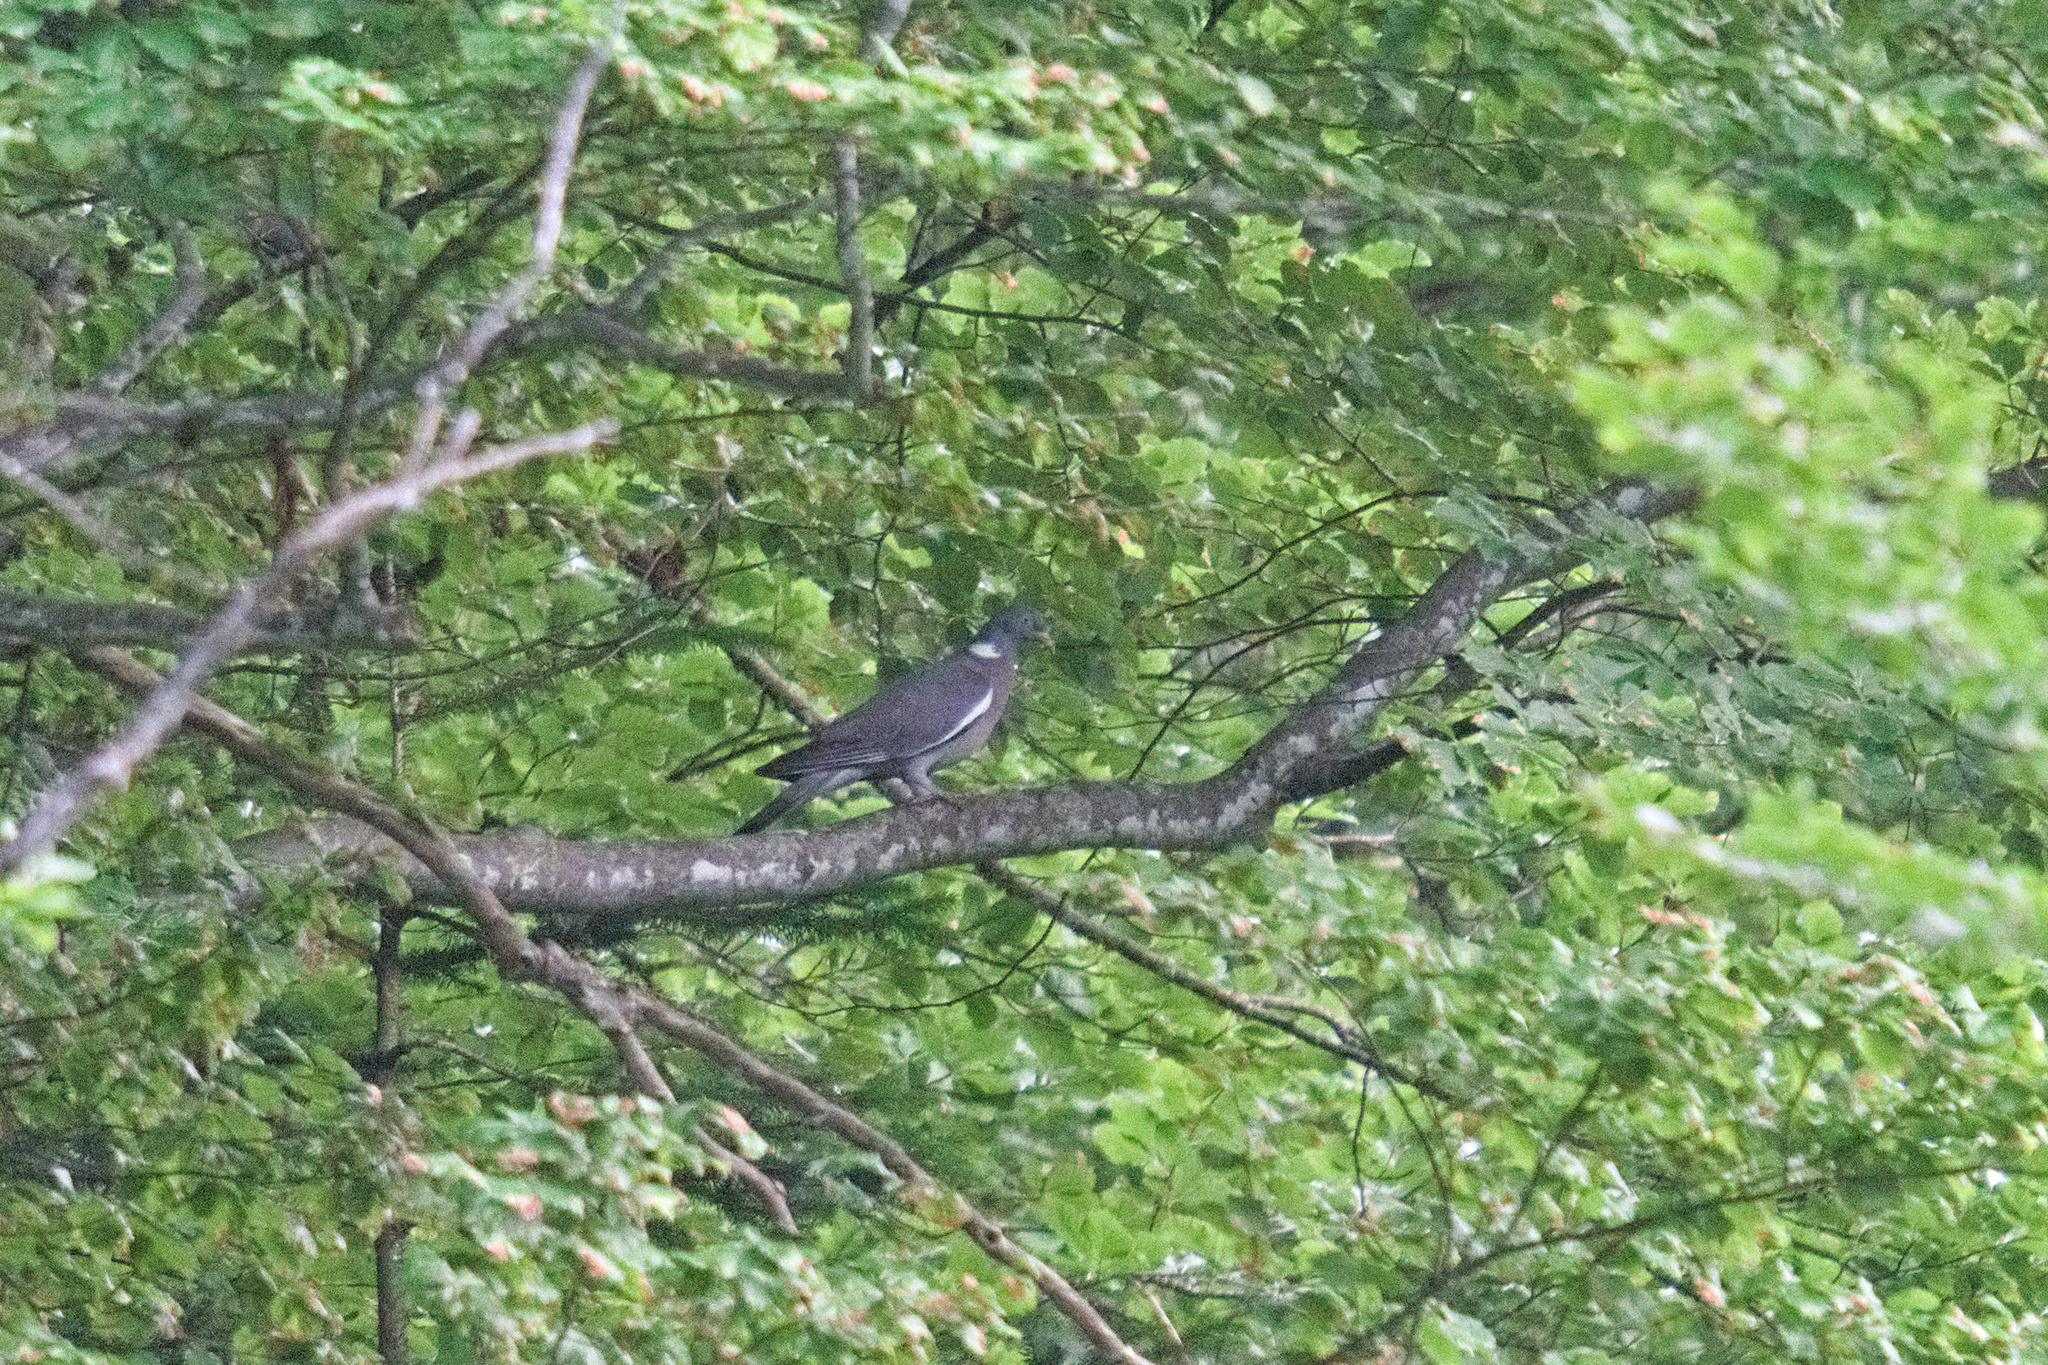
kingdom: Animalia
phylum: Chordata
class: Aves
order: Columbiformes
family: Columbidae
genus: Columba
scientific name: Columba palumbus
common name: Common wood pigeon
